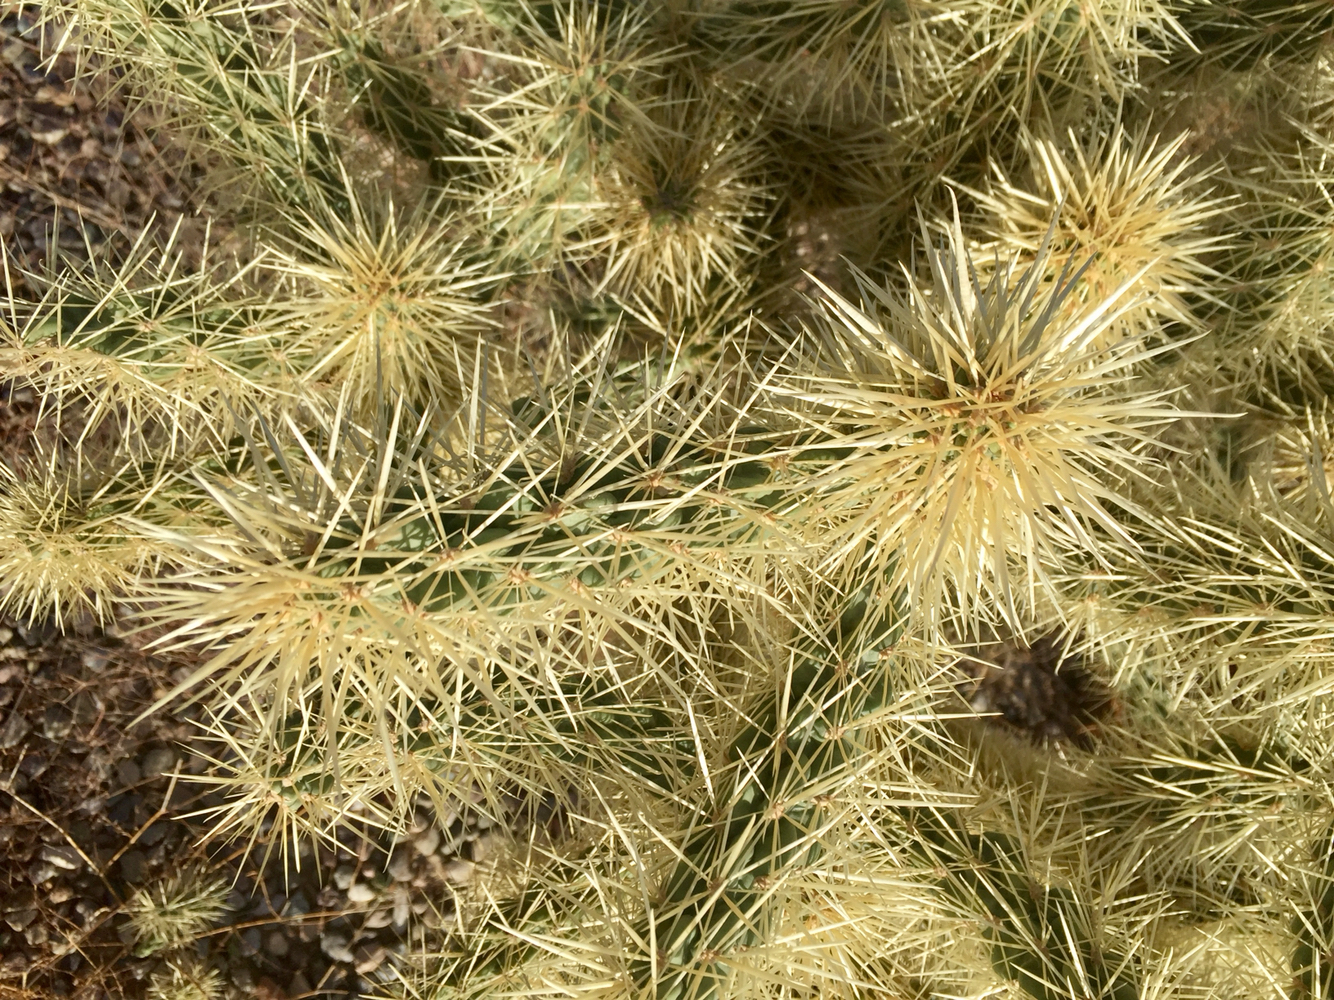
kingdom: Plantae
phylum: Tracheophyta
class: Magnoliopsida
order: Caryophyllales
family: Cactaceae
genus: Cylindropuntia
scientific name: Cylindropuntia fosbergii
